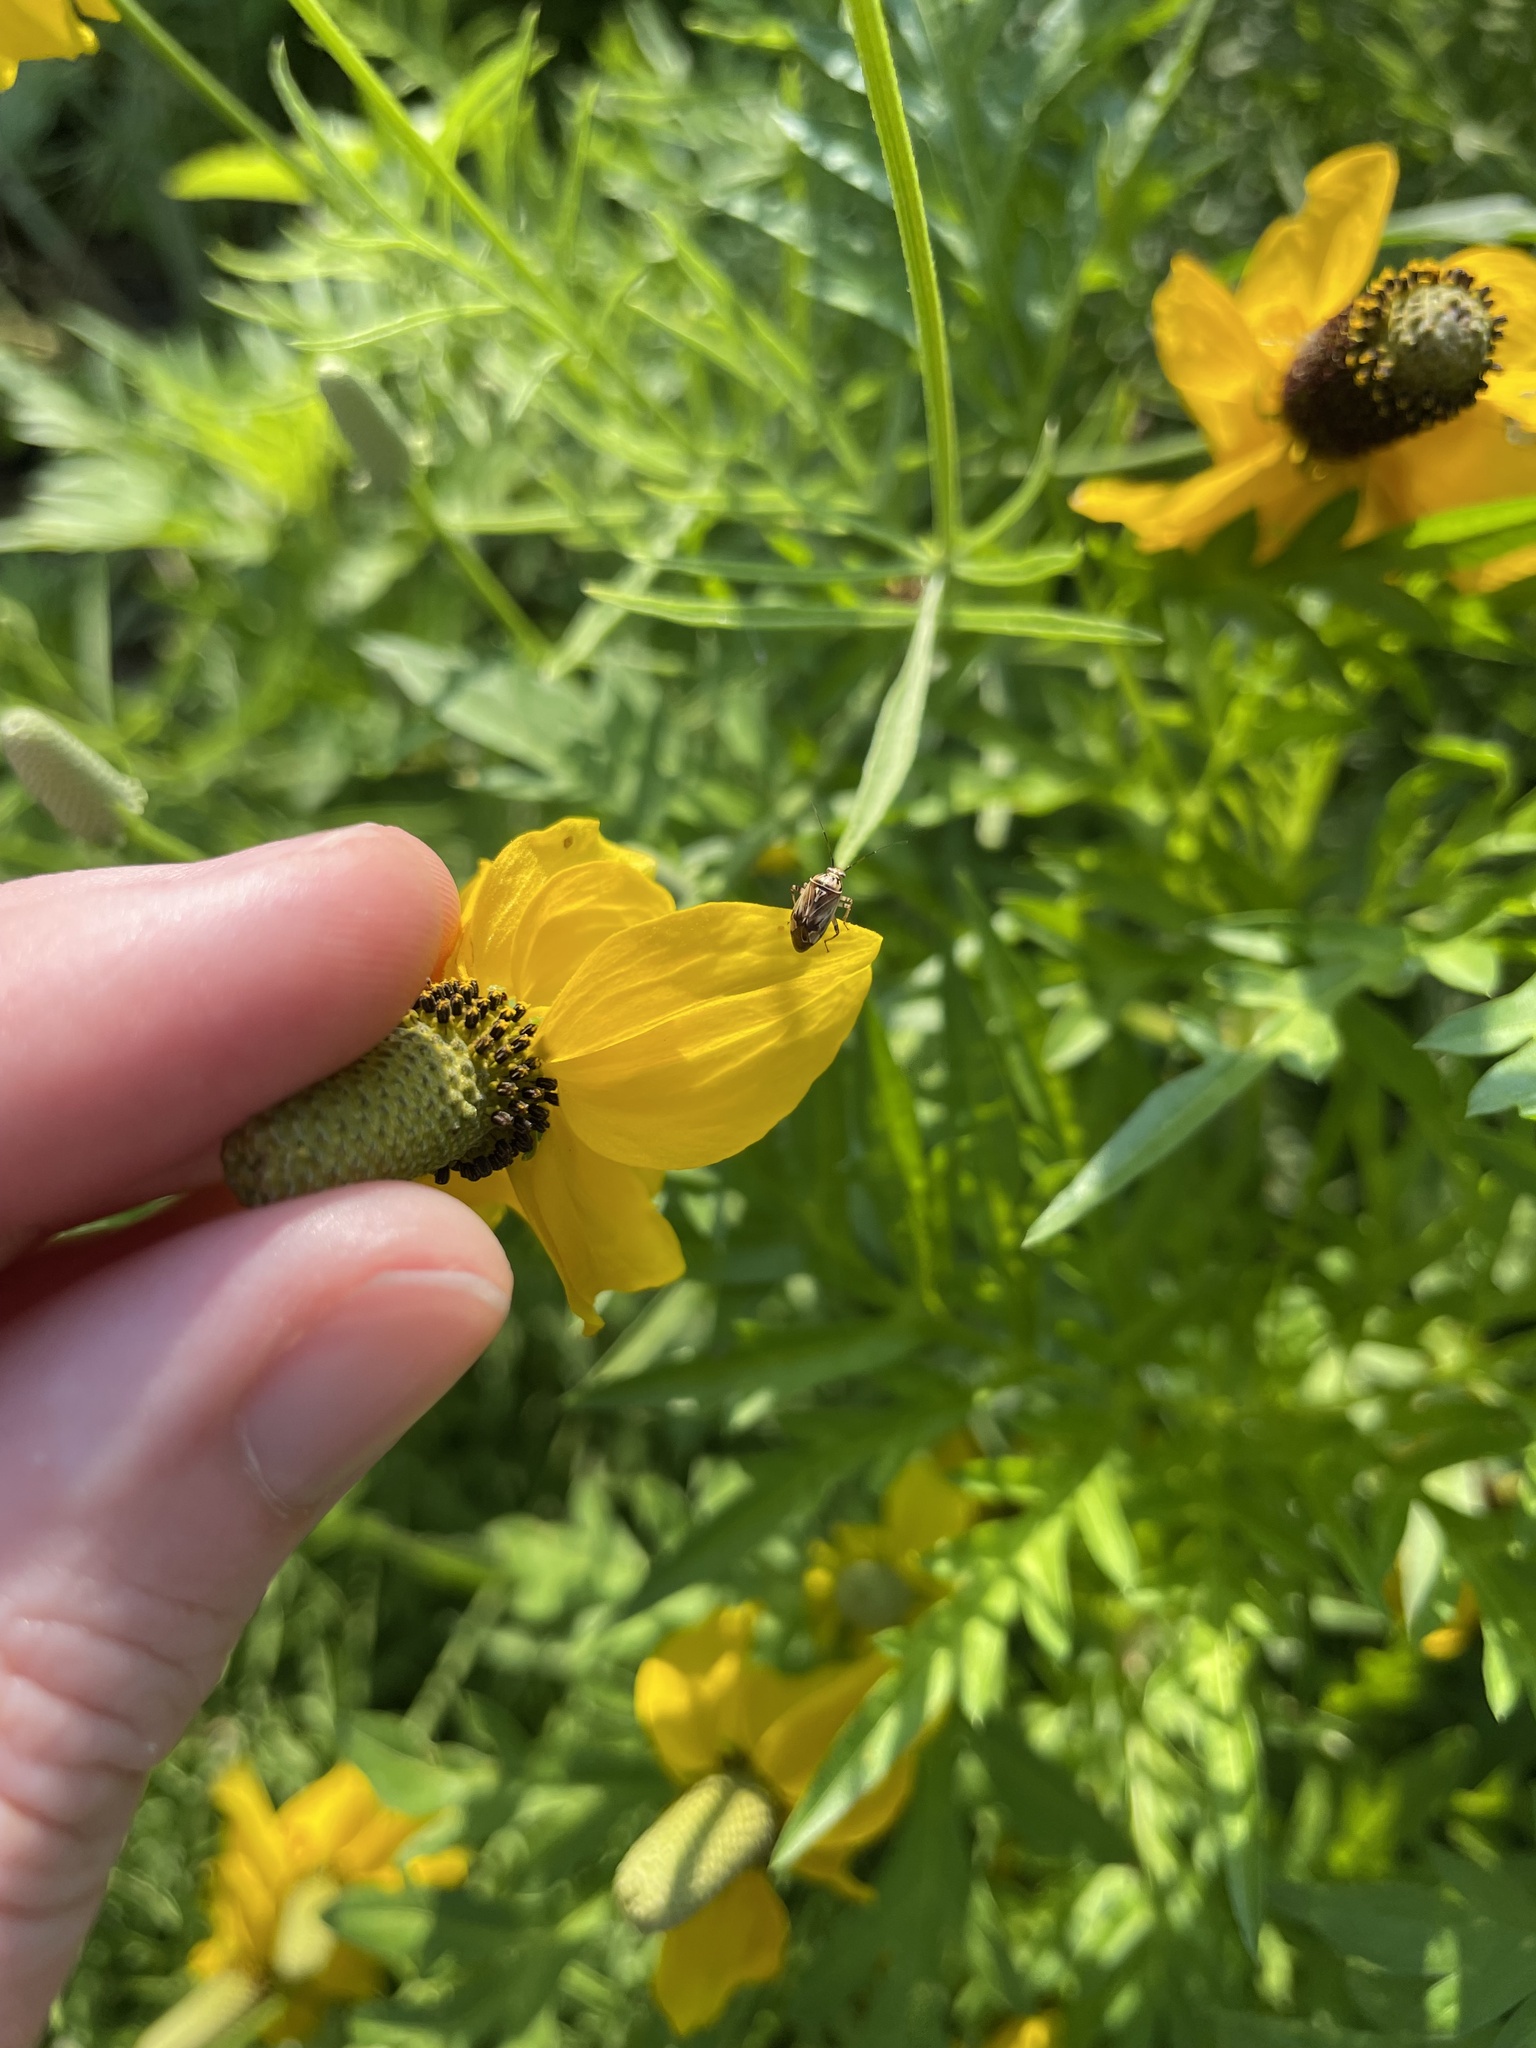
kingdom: Animalia
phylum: Arthropoda
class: Insecta
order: Hemiptera
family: Miridae
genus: Lygus
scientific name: Lygus lineolaris
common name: North american tarnished plant bug
